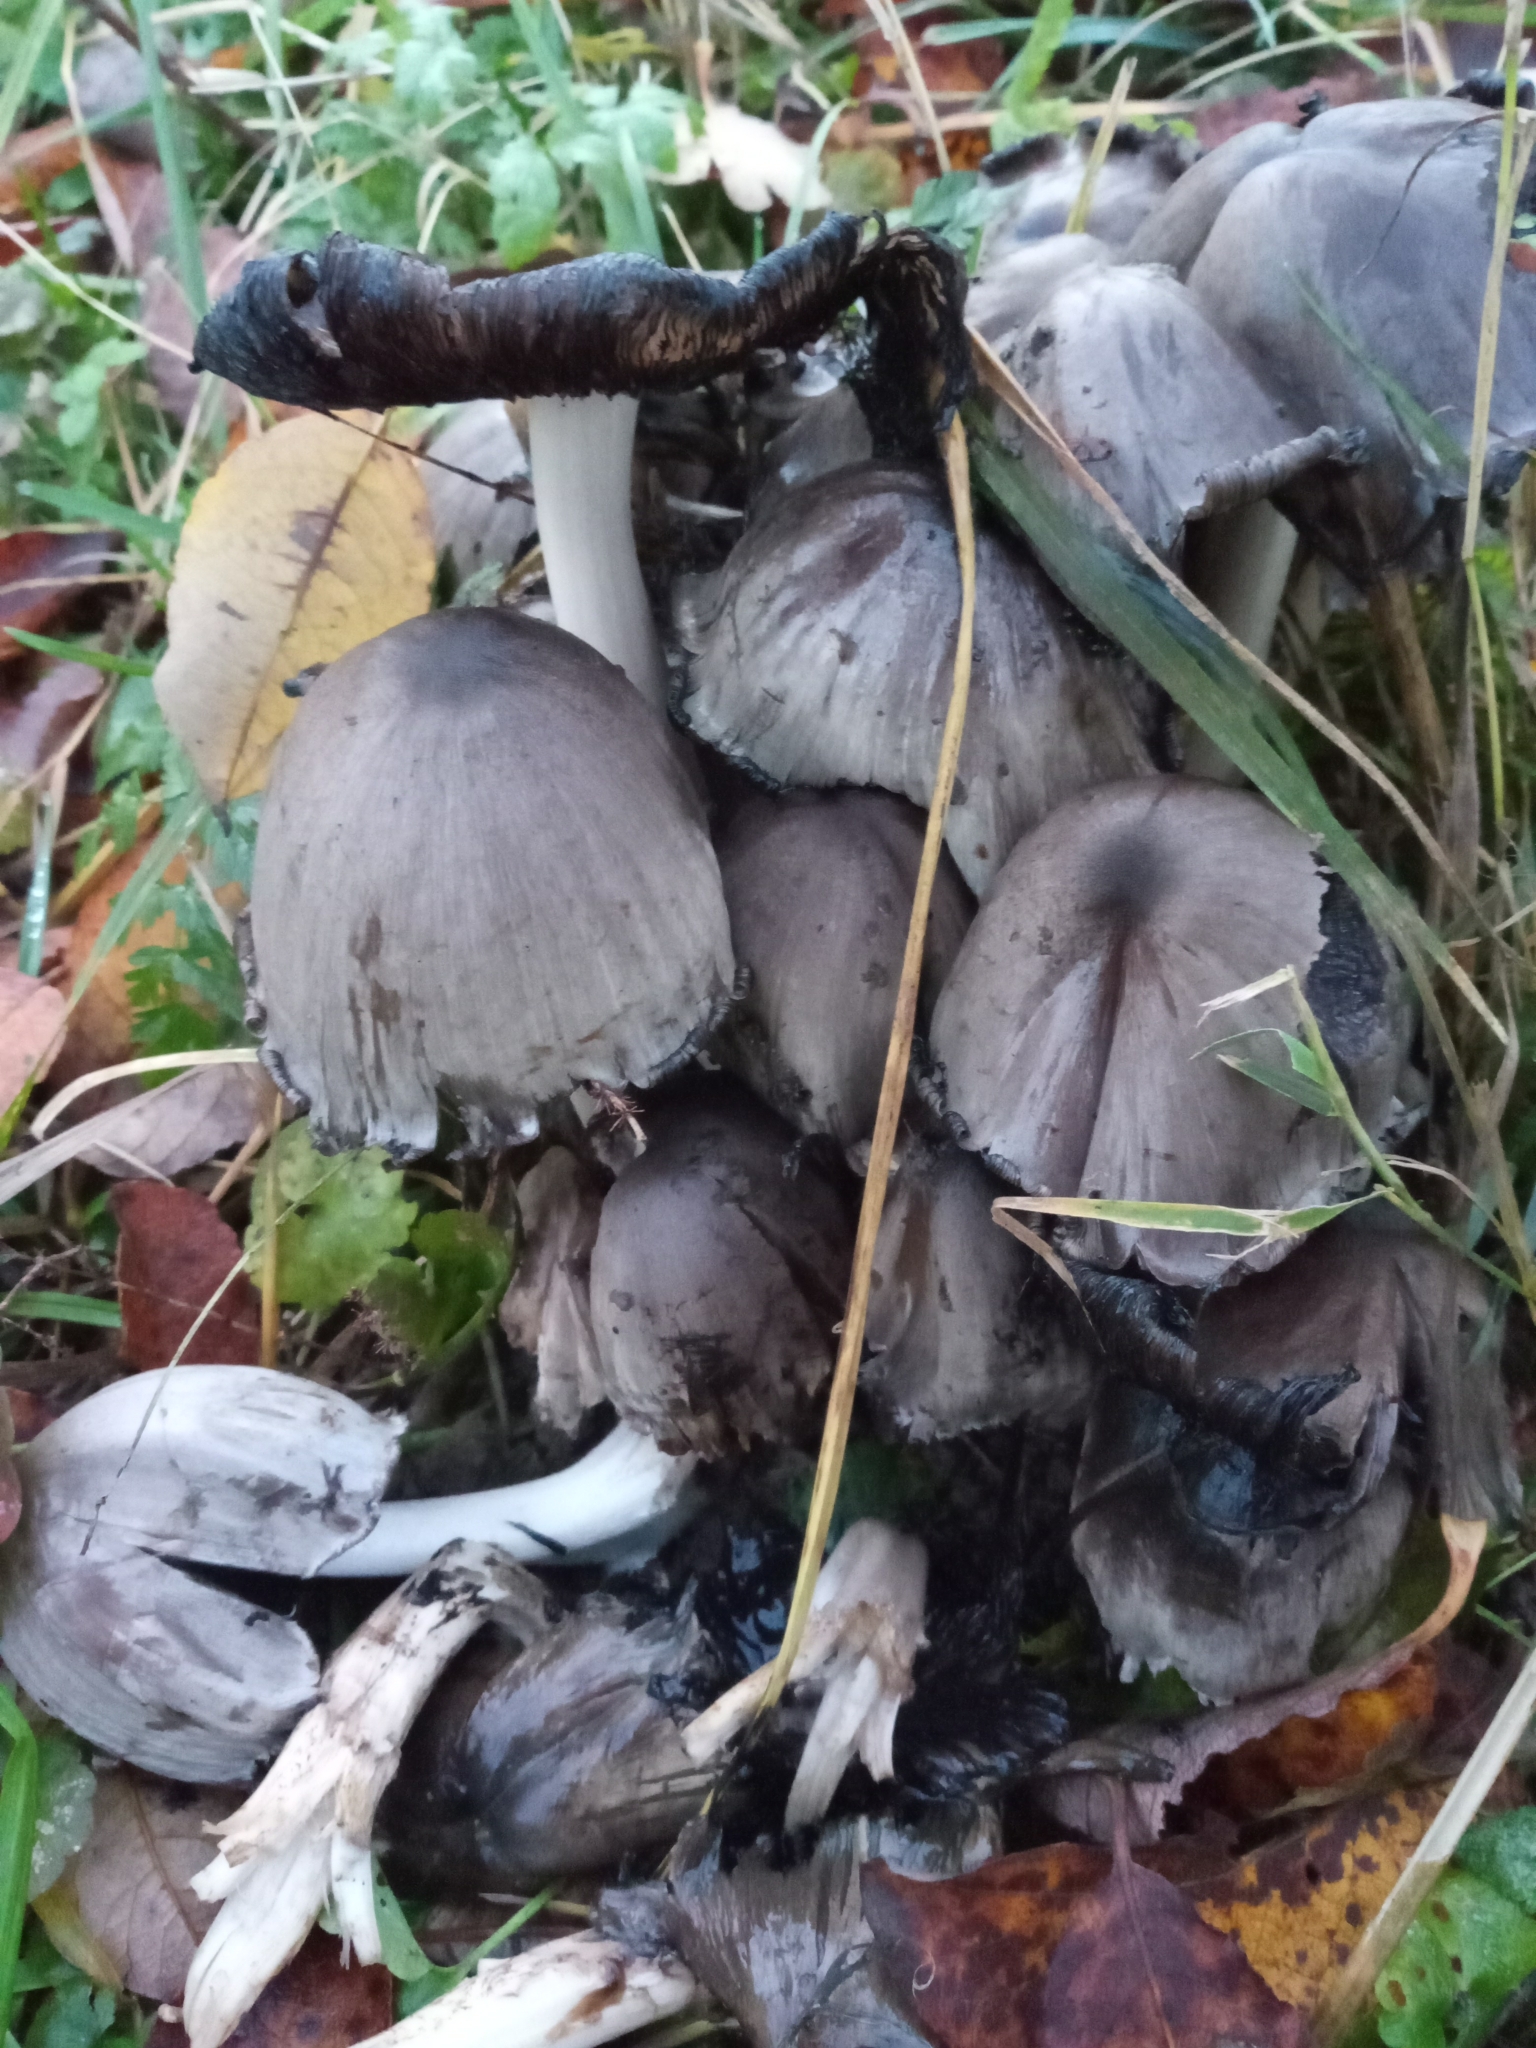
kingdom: Fungi
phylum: Basidiomycota
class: Agaricomycetes
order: Agaricales
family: Psathyrellaceae
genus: Coprinopsis
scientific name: Coprinopsis atramentaria
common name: Common ink-cap
